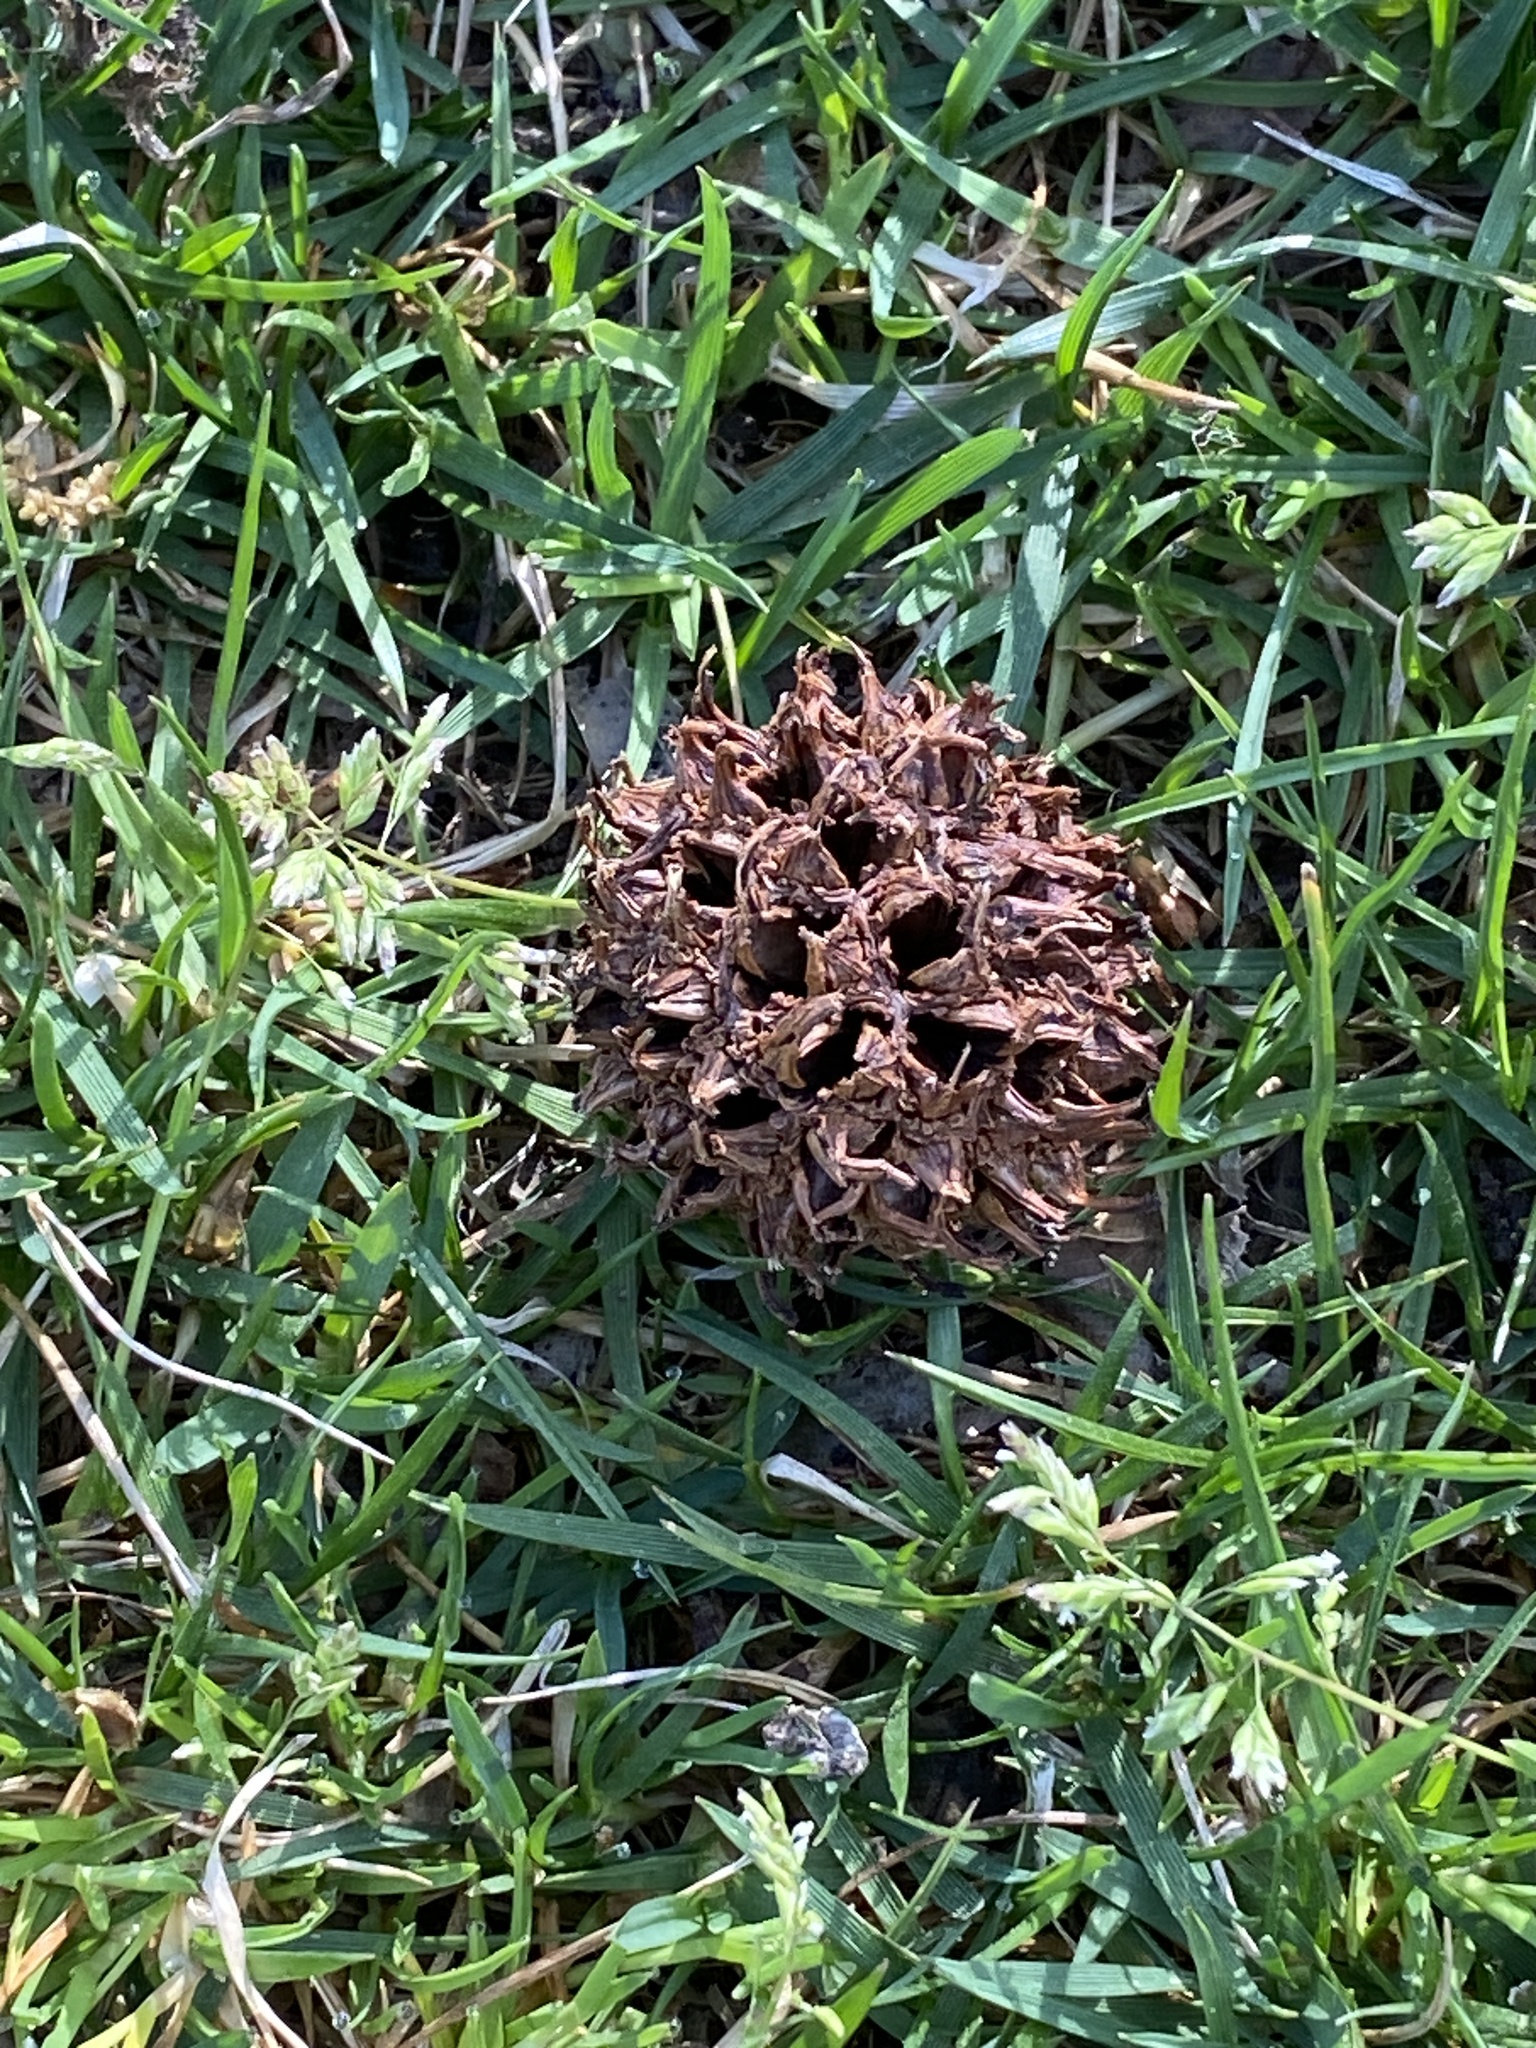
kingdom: Plantae
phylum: Tracheophyta
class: Magnoliopsida
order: Saxifragales
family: Altingiaceae
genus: Liquidambar
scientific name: Liquidambar styraciflua
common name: Sweet gum
